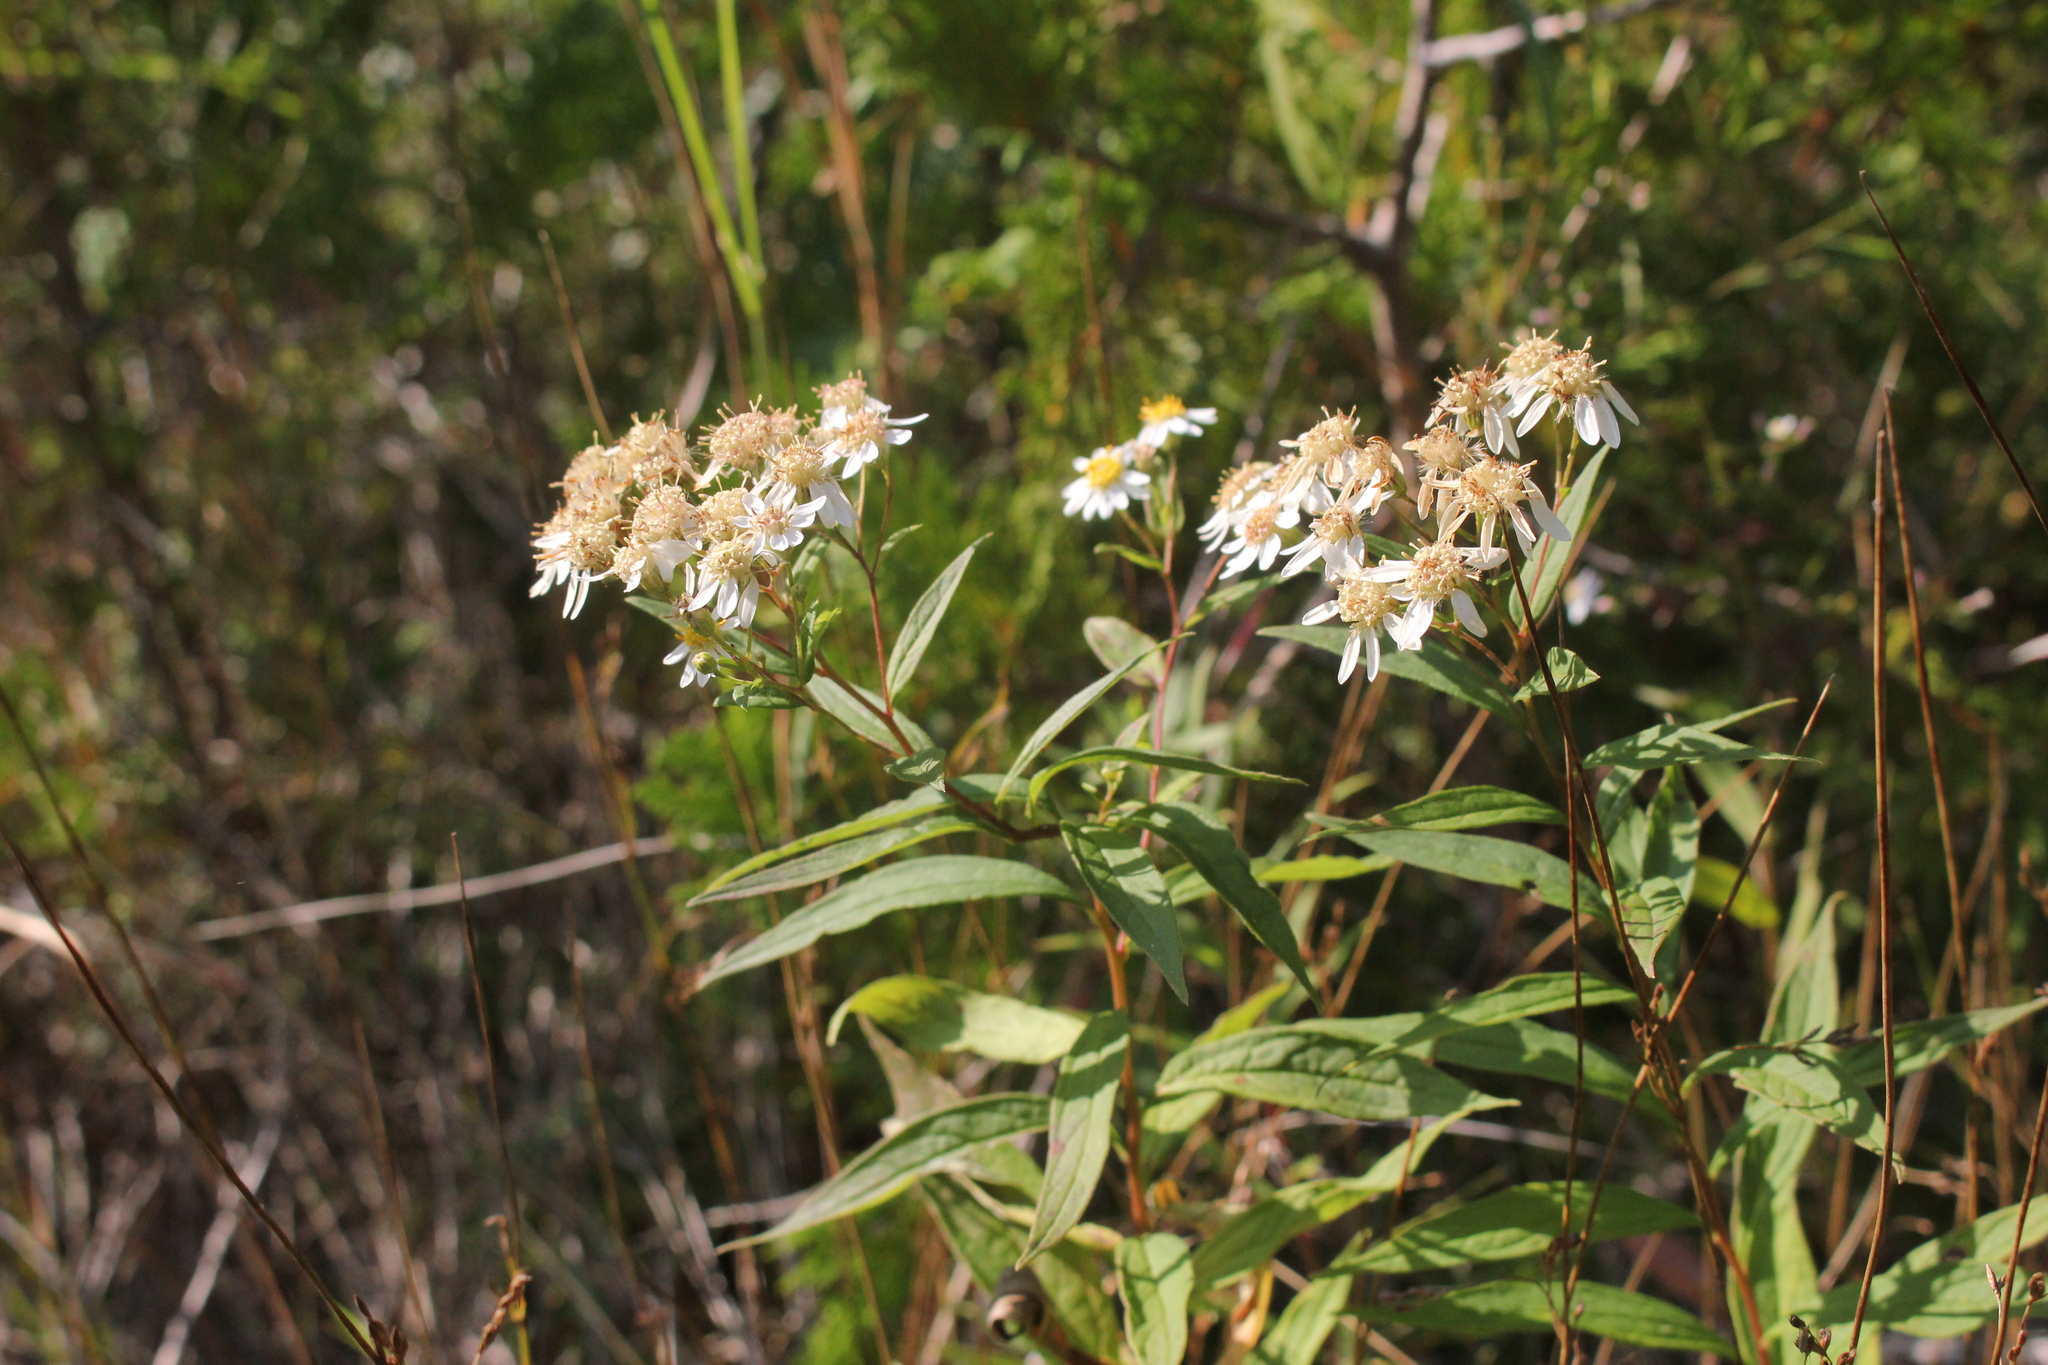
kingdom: Plantae
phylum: Tracheophyta
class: Magnoliopsida
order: Asterales
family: Asteraceae
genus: Doellingeria
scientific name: Doellingeria umbellata
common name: Flat-top white aster
